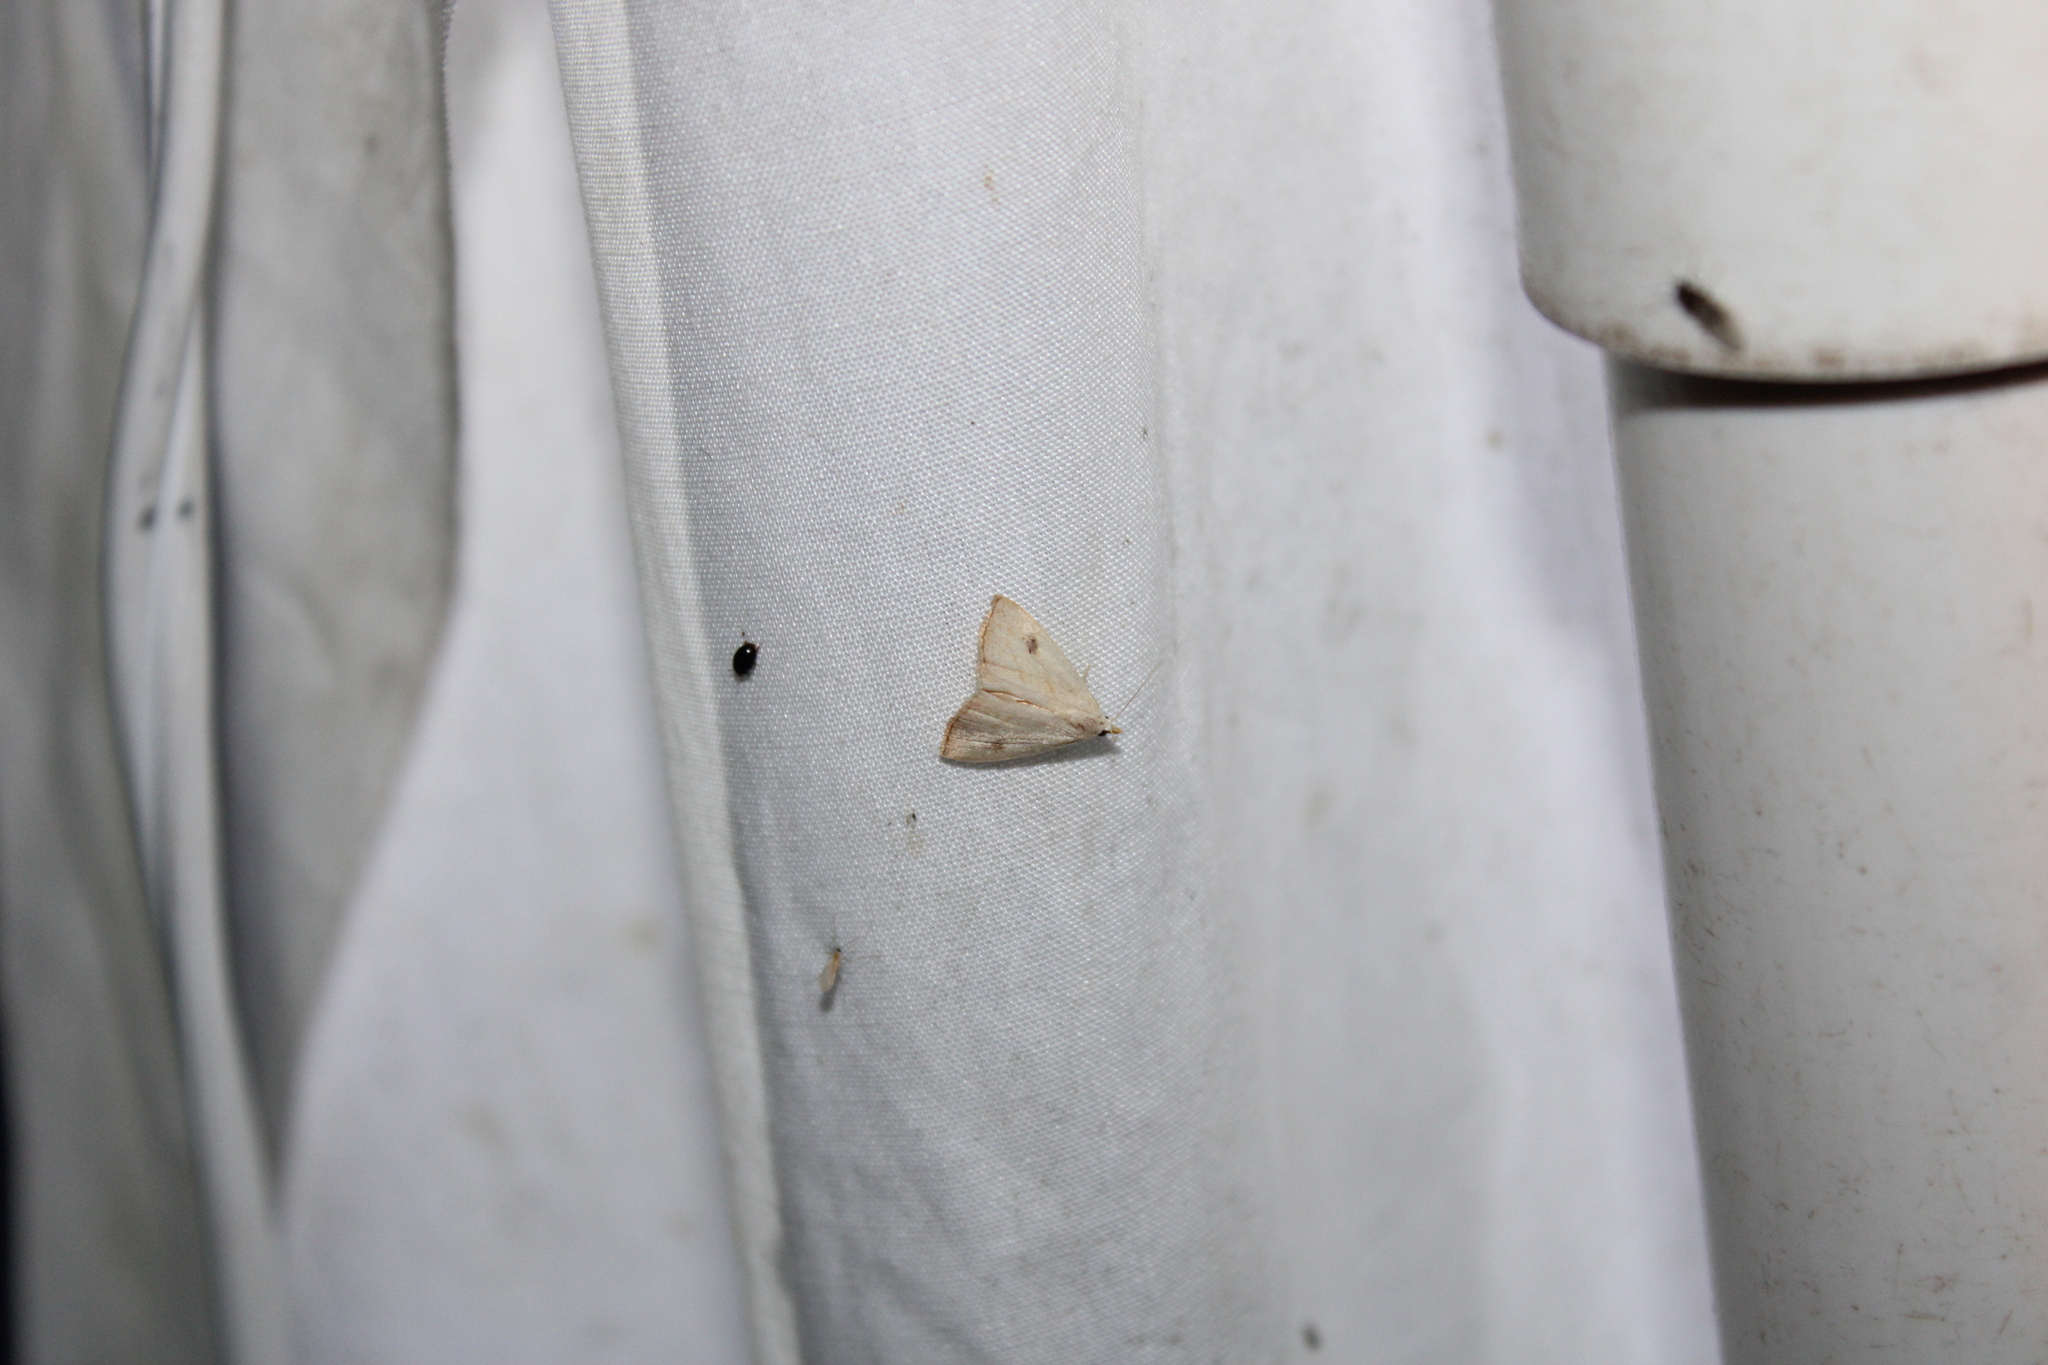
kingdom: Animalia
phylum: Arthropoda
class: Insecta
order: Lepidoptera
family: Erebidae
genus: Rivula
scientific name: Rivula propinqualis
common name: Spotted grass moth
